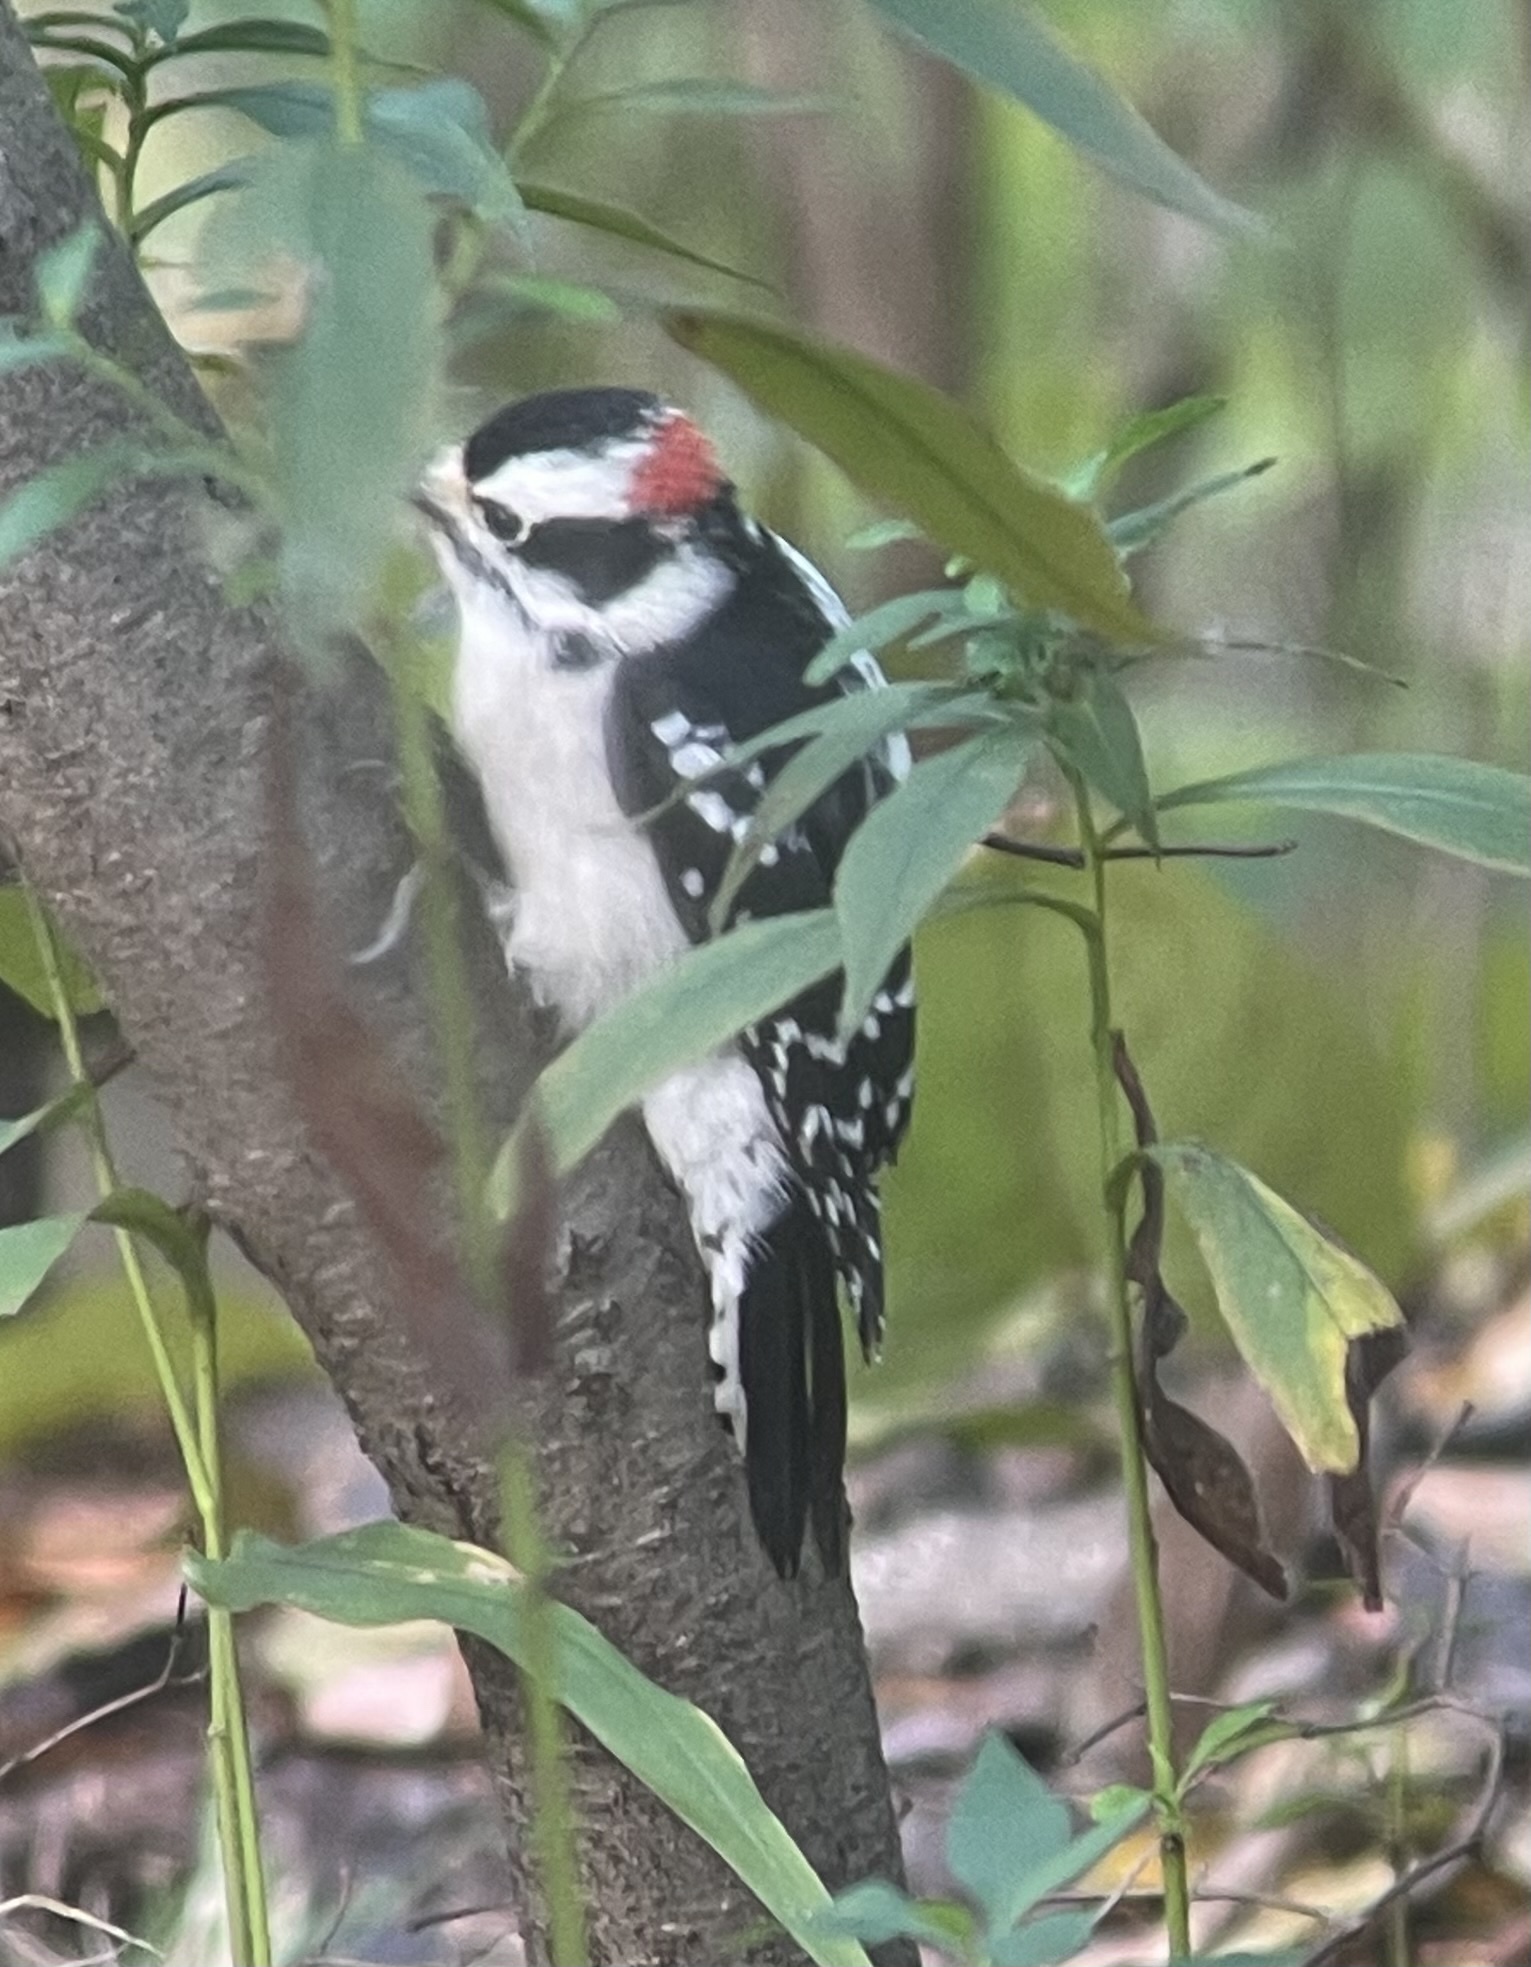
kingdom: Animalia
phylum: Chordata
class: Aves
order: Piciformes
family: Picidae
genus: Dryobates
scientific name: Dryobates pubescens
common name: Downy woodpecker
